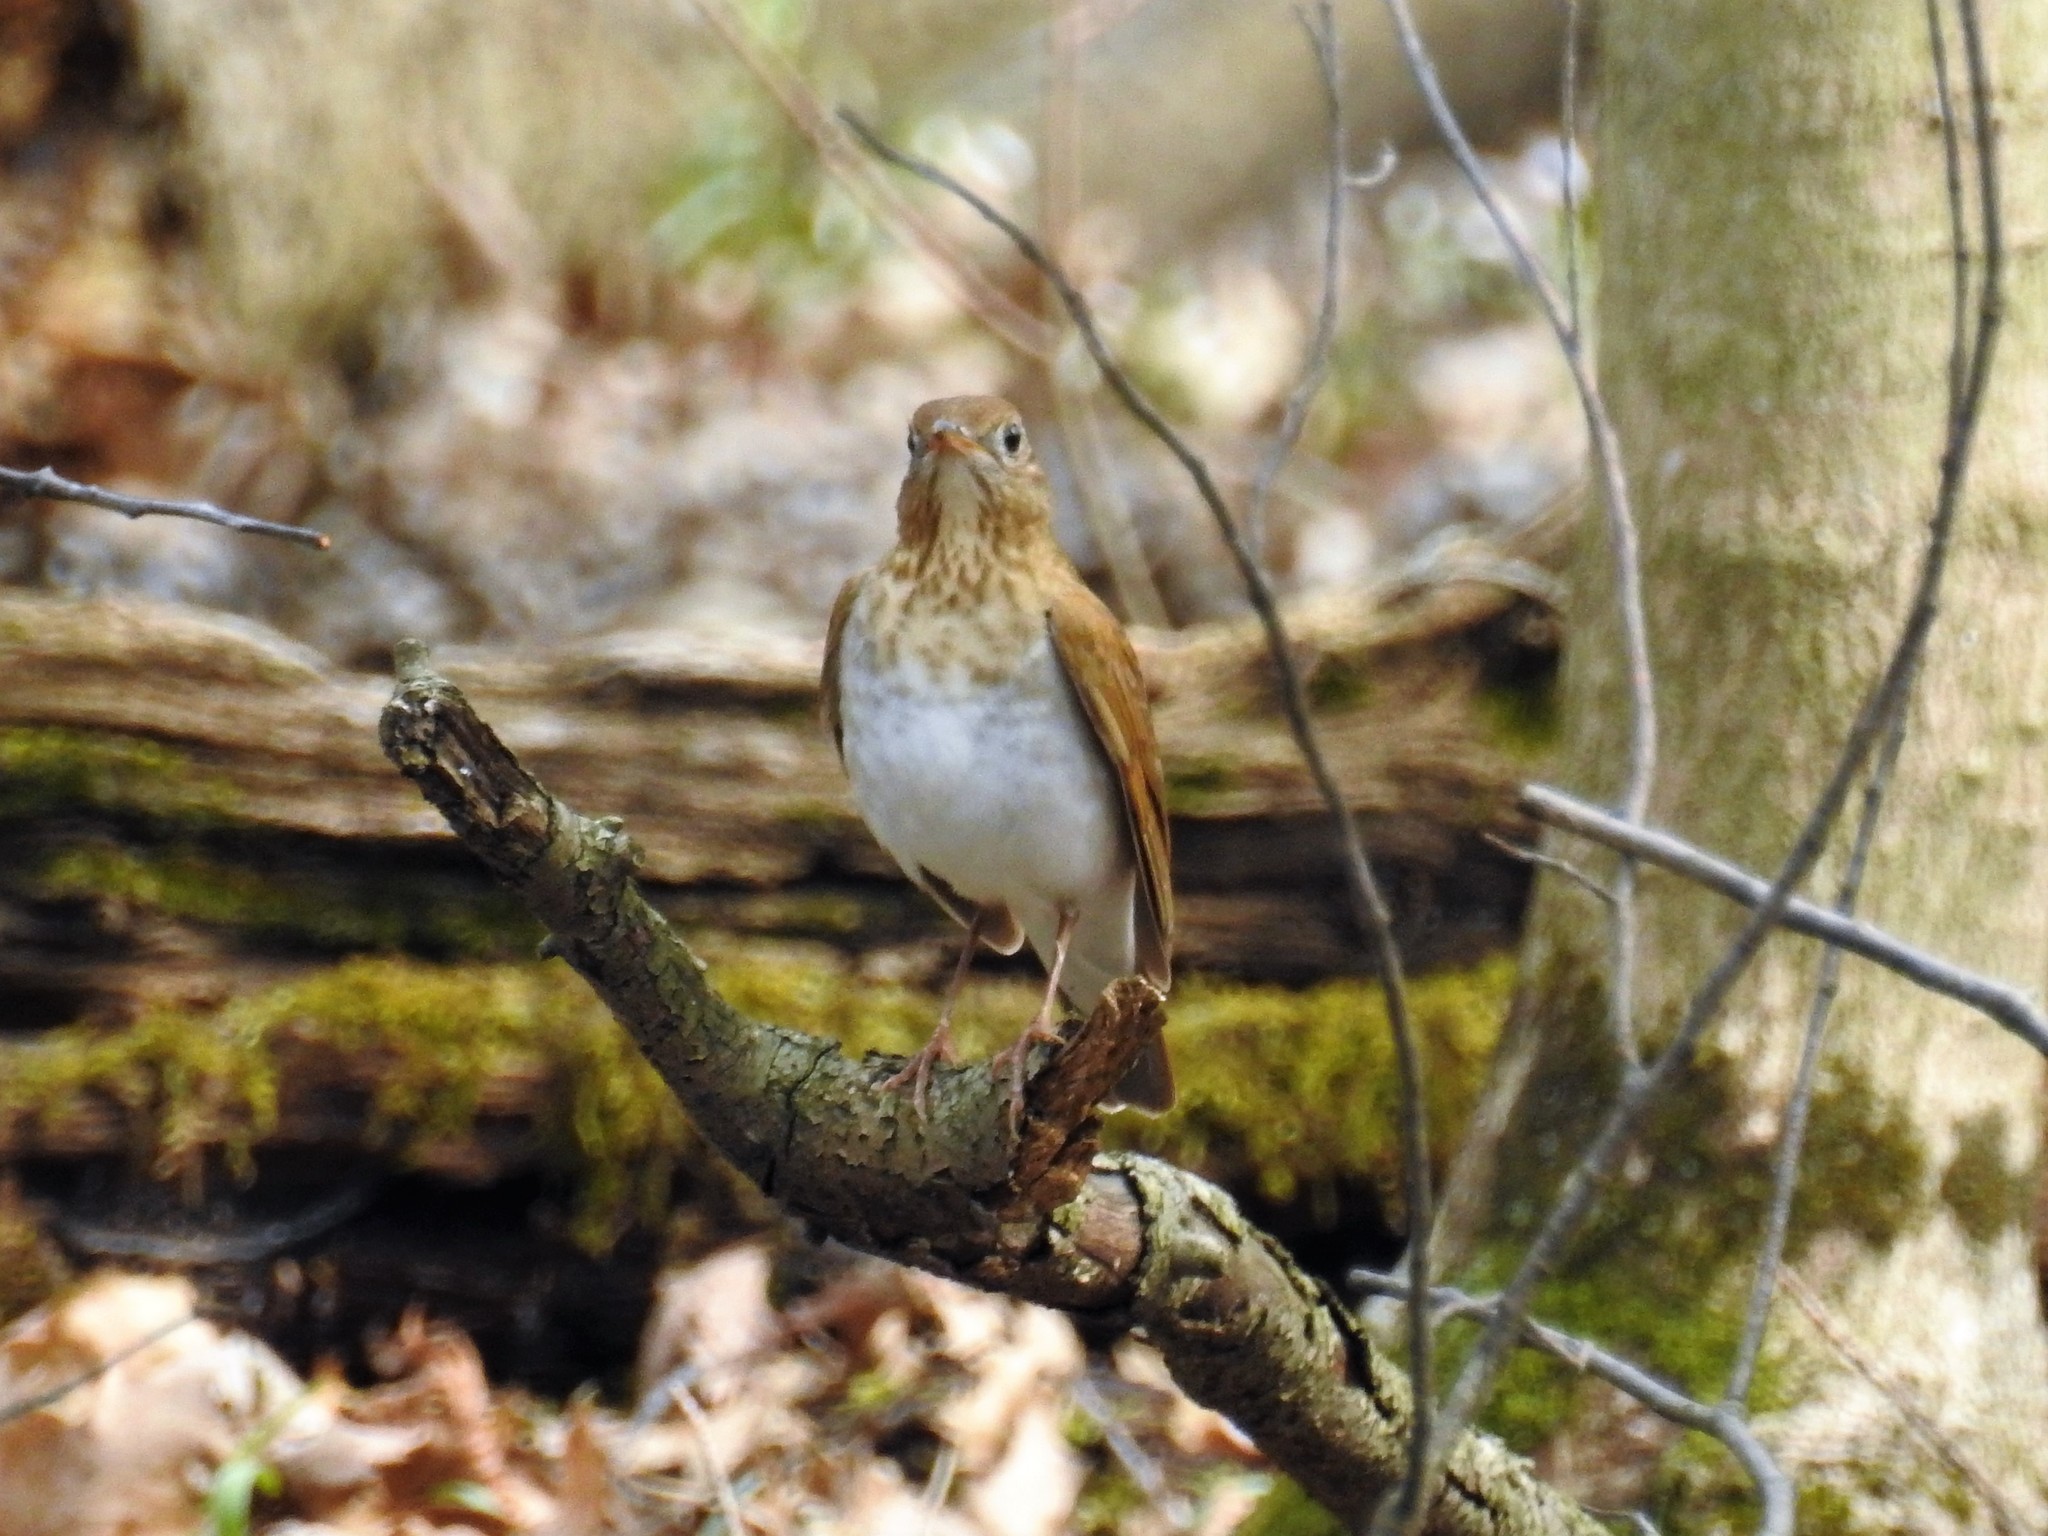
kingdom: Animalia
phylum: Chordata
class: Aves
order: Passeriformes
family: Turdidae
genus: Catharus
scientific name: Catharus fuscescens
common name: Veery
